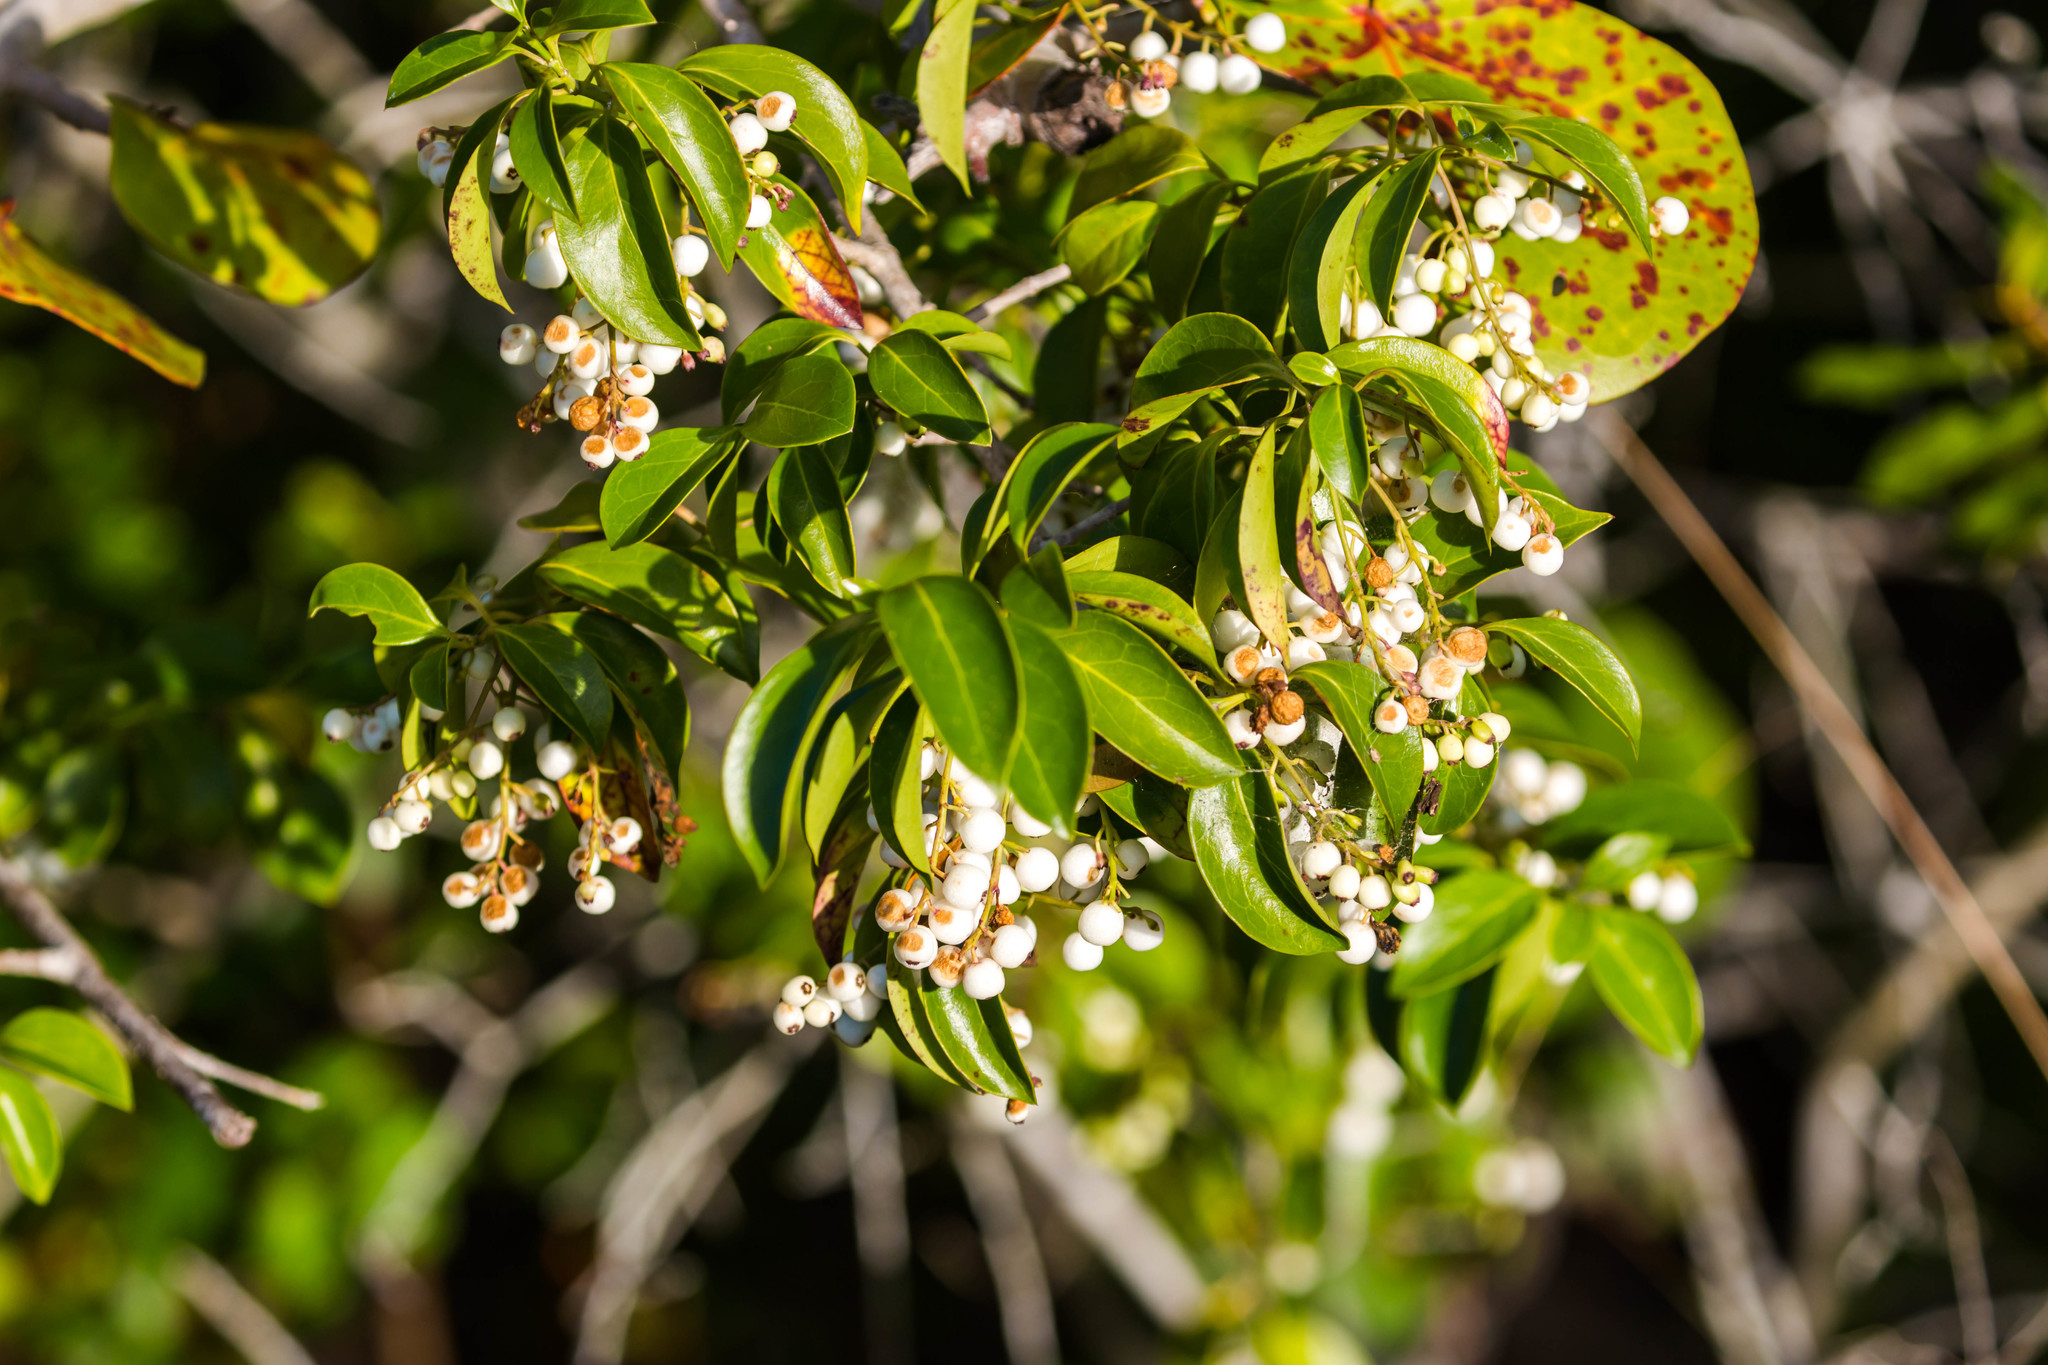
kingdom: Plantae
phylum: Tracheophyta
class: Magnoliopsida
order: Gentianales
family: Rubiaceae
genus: Chiococca
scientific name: Chiococca alba
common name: Snowberry
